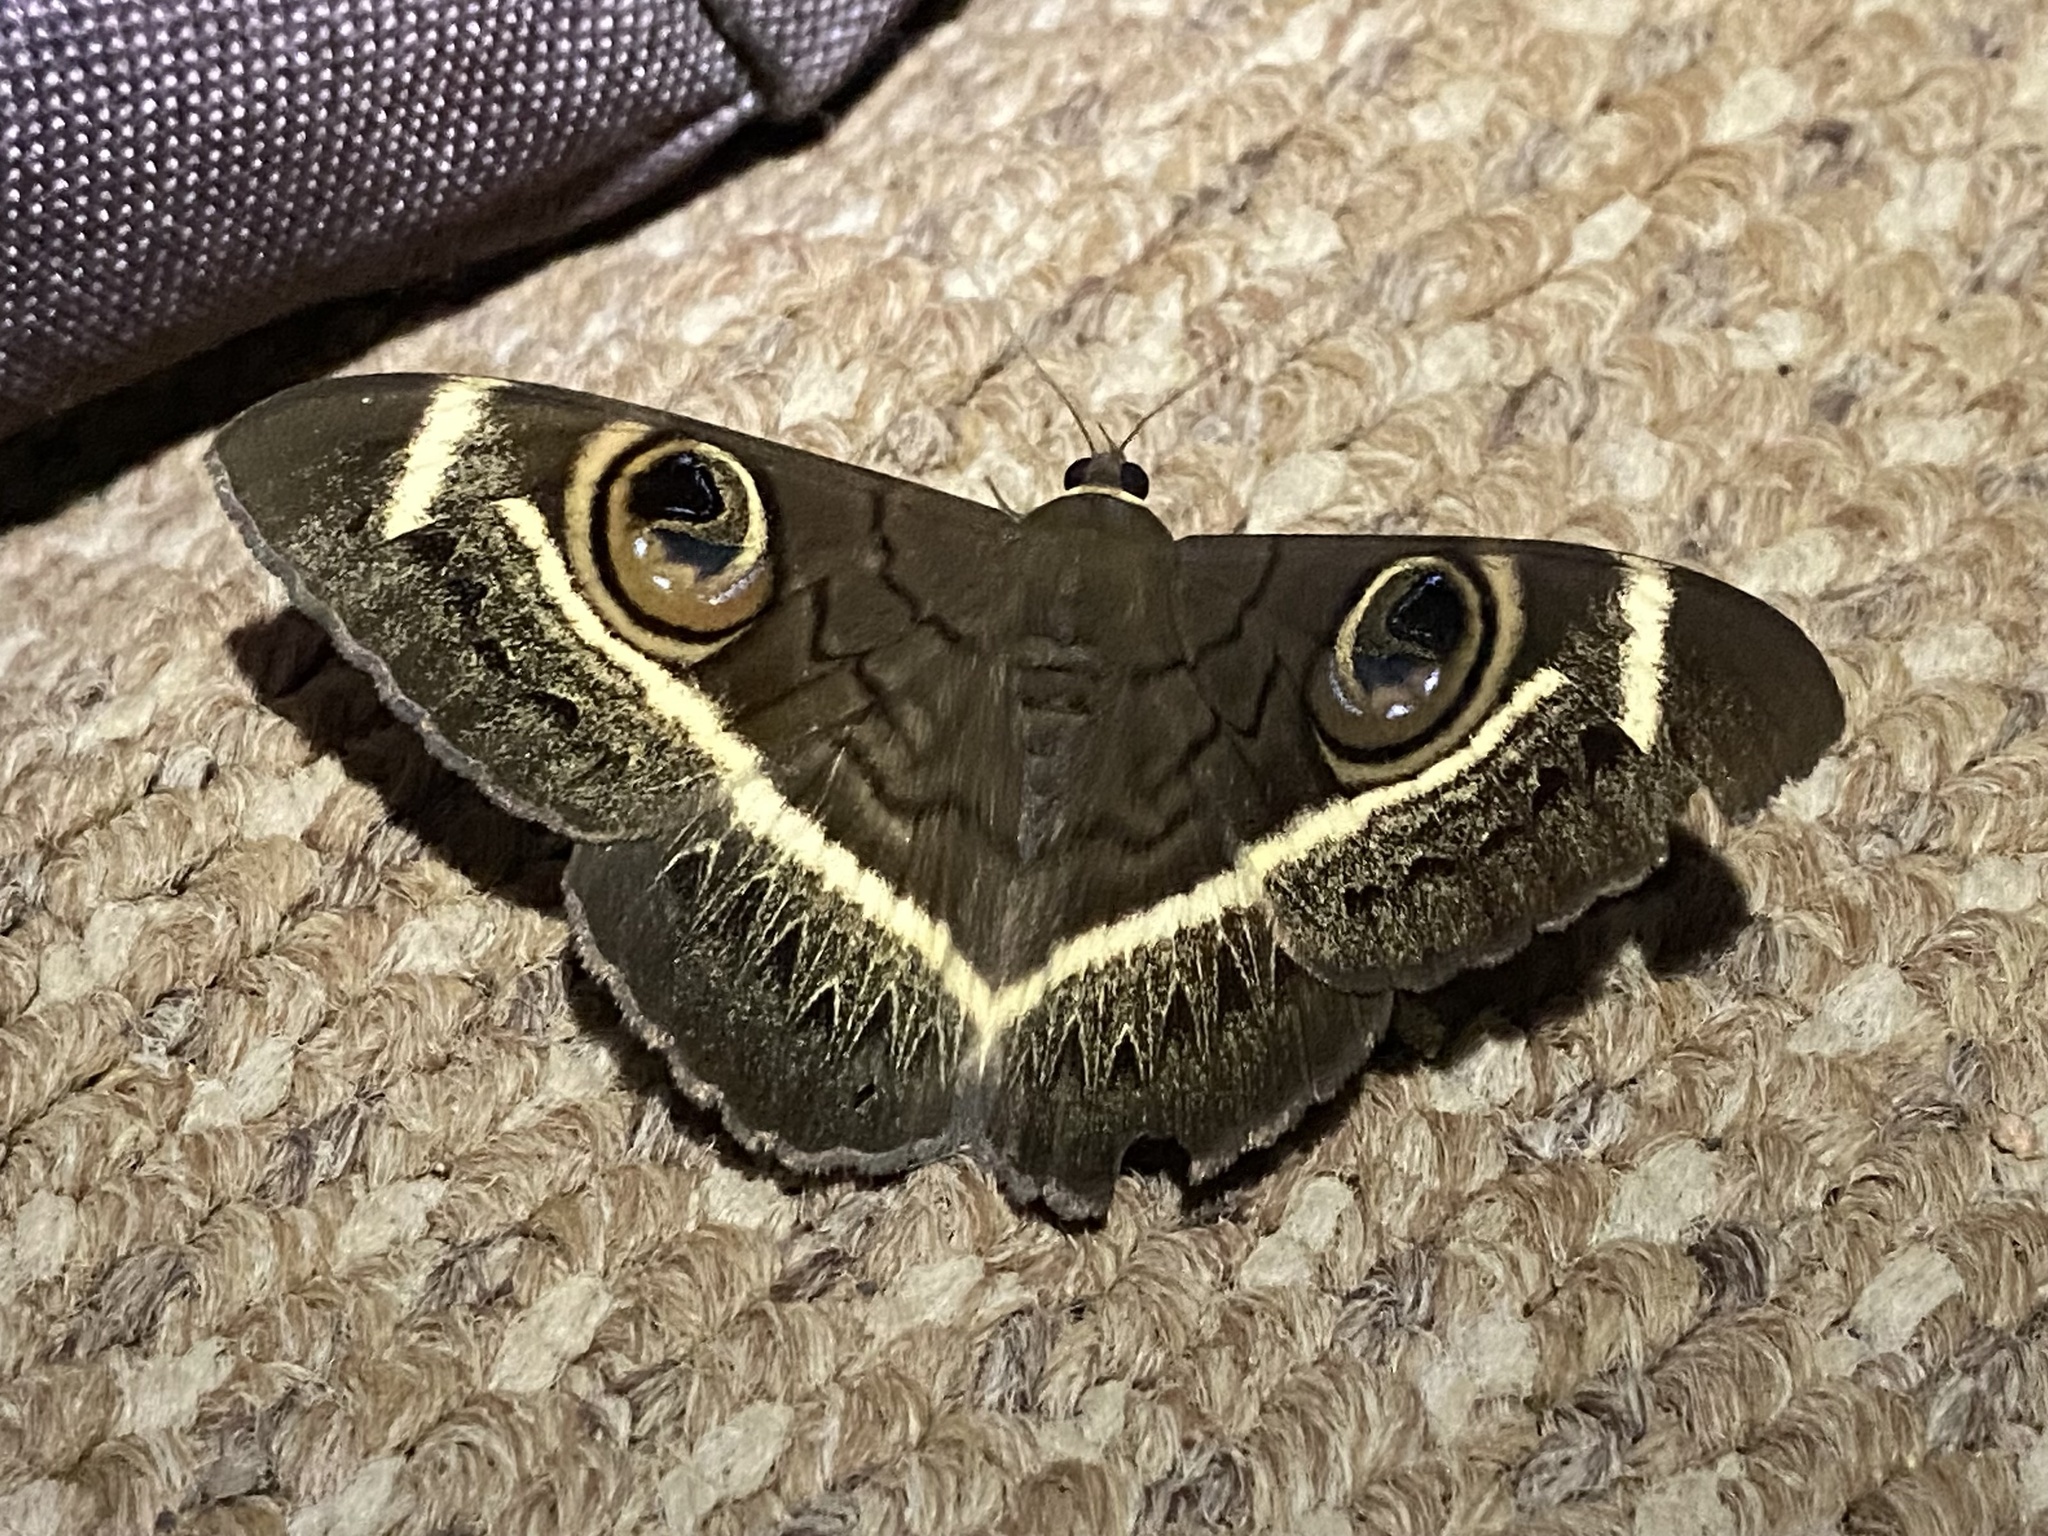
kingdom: Animalia
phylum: Arthropoda
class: Insecta
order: Lepidoptera
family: Erebidae
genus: Cyligramma
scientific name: Cyligramma latona
